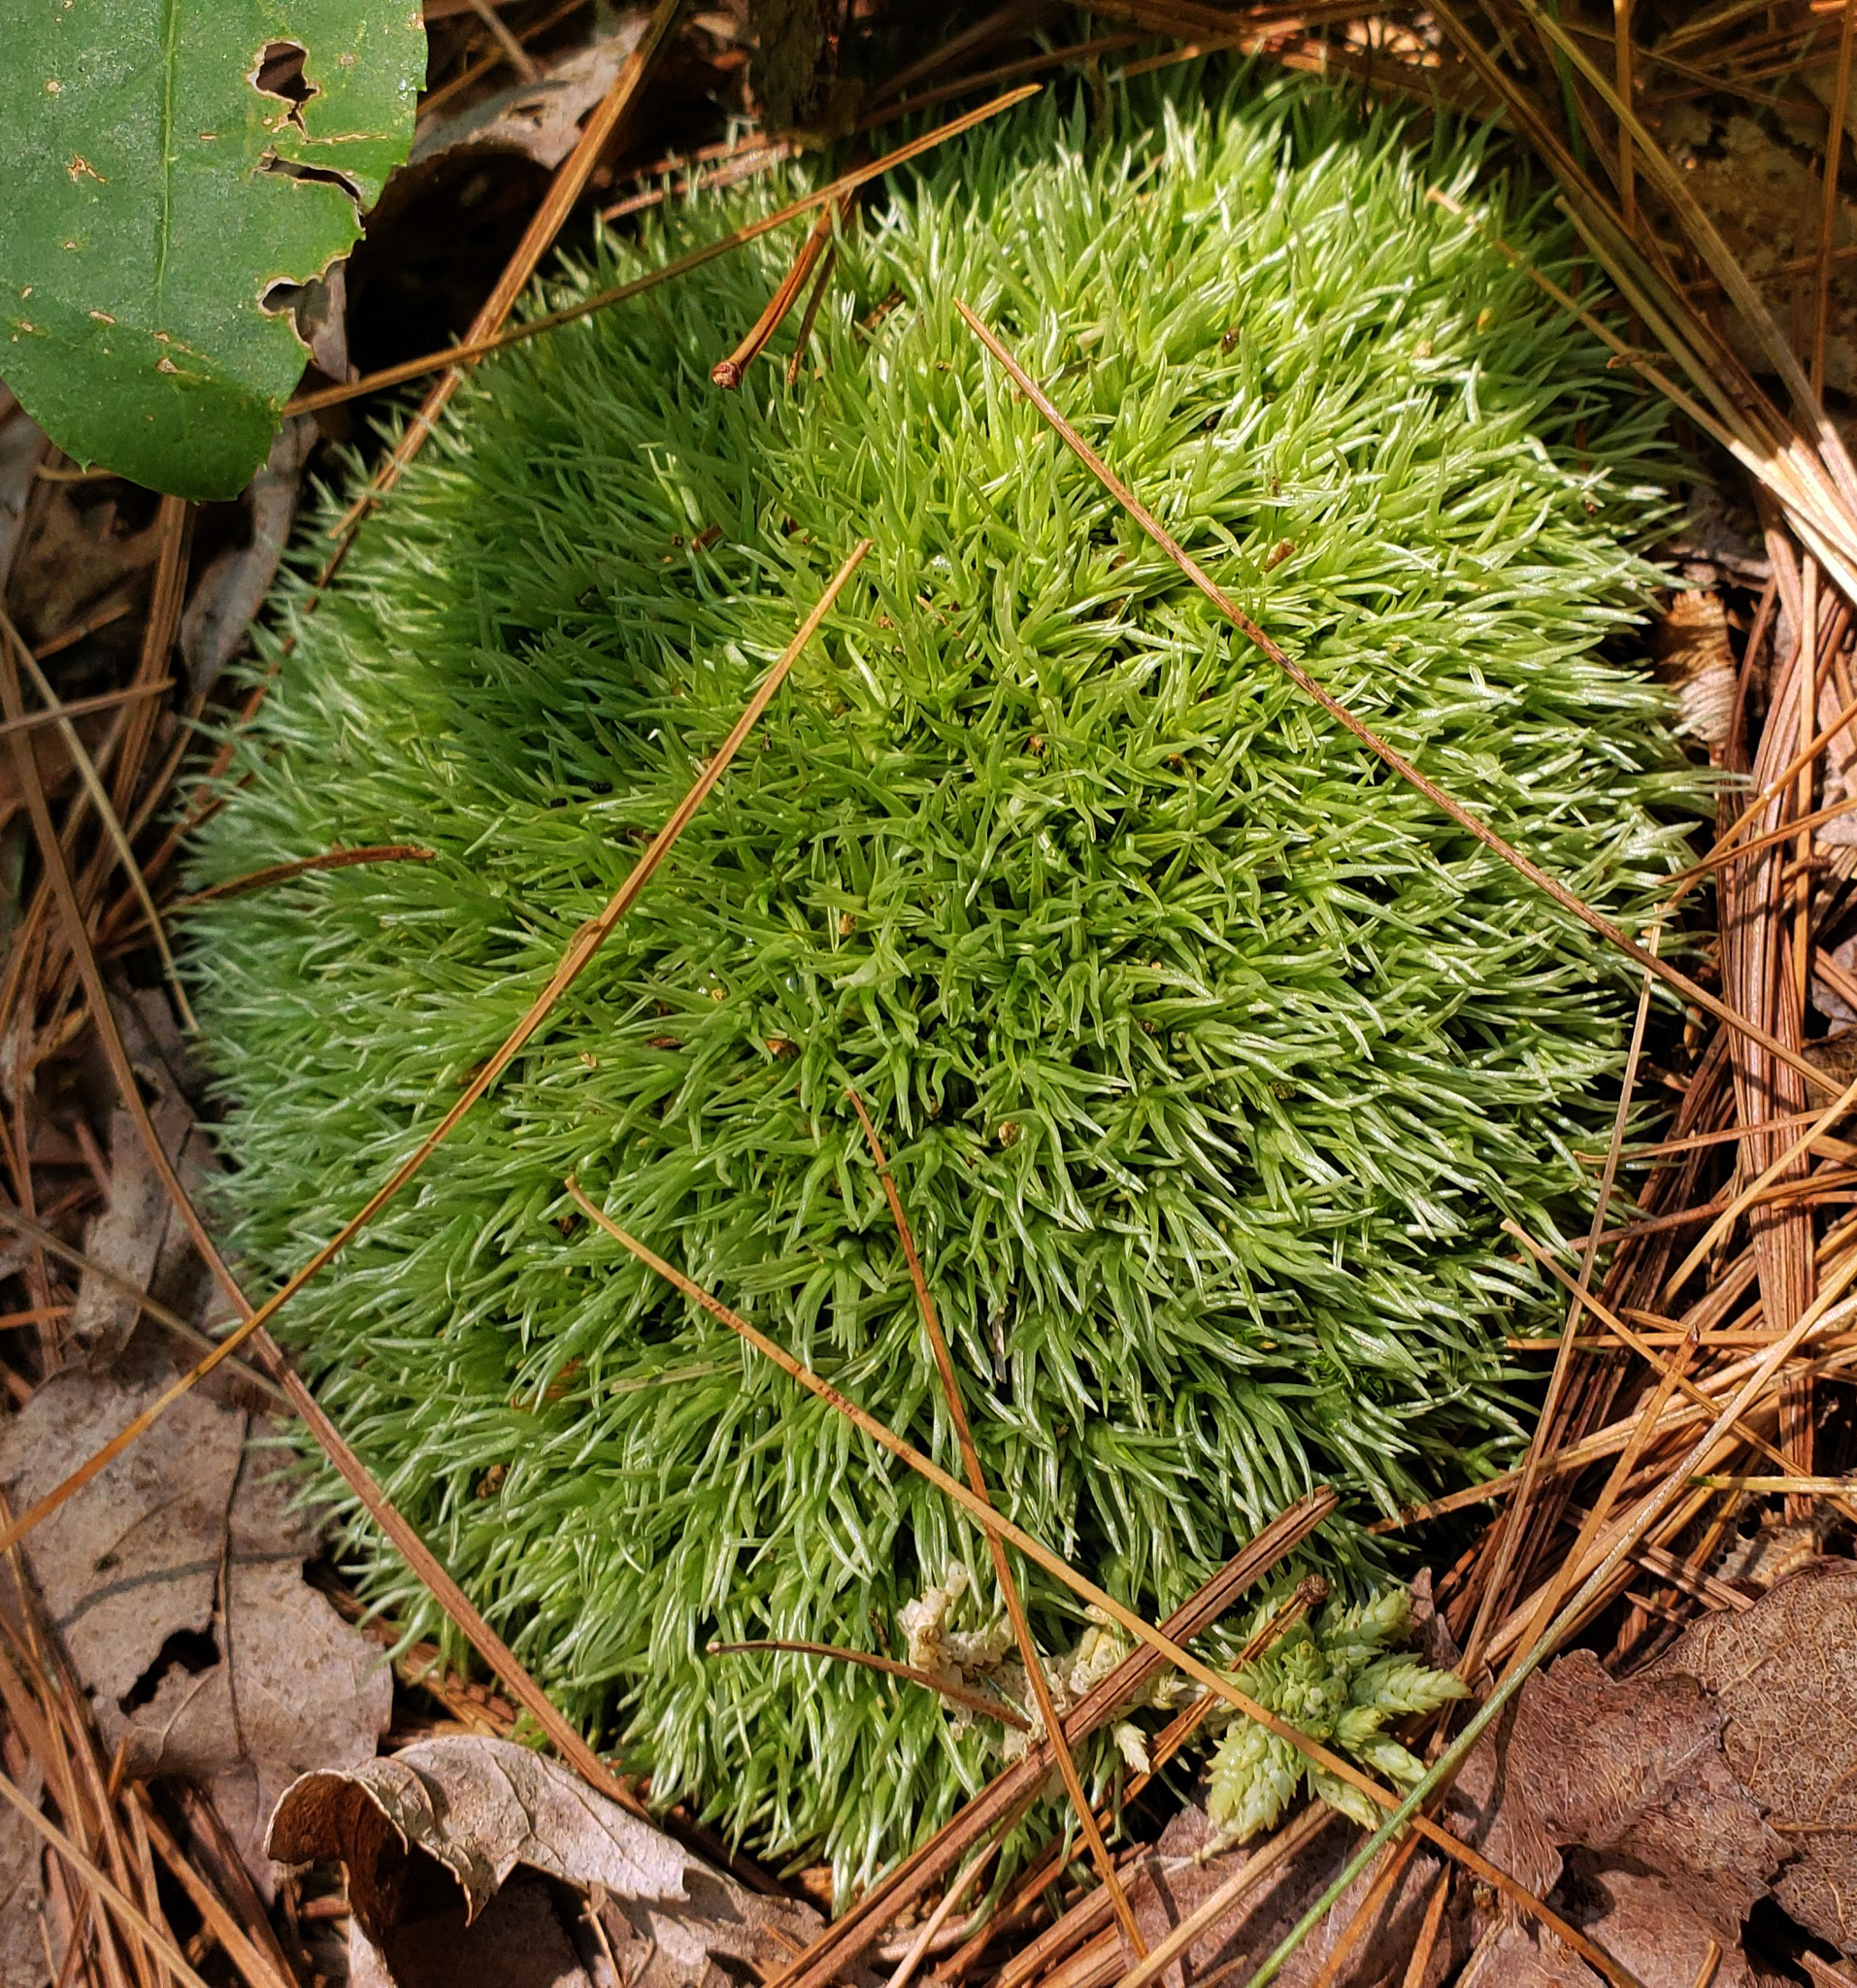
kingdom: Plantae
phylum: Bryophyta
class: Bryopsida
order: Dicranales
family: Leucobryaceae
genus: Leucobryum
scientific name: Leucobryum glaucum
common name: Large white-moss
